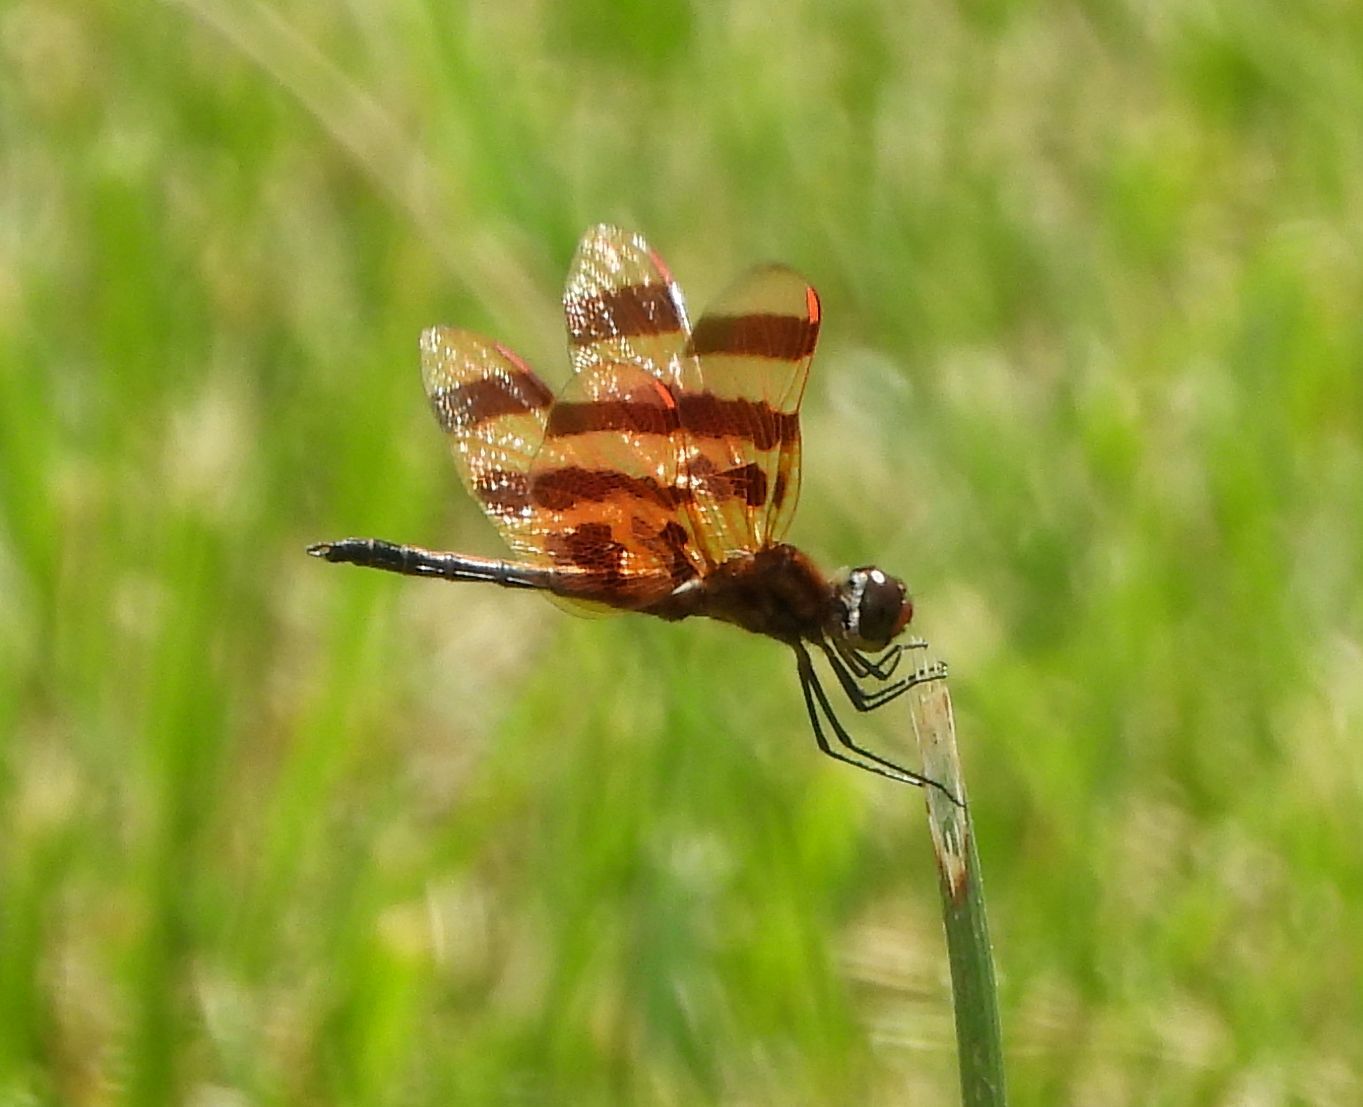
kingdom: Animalia
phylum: Arthropoda
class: Insecta
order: Odonata
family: Libellulidae
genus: Celithemis
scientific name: Celithemis eponina
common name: Halloween pennant
